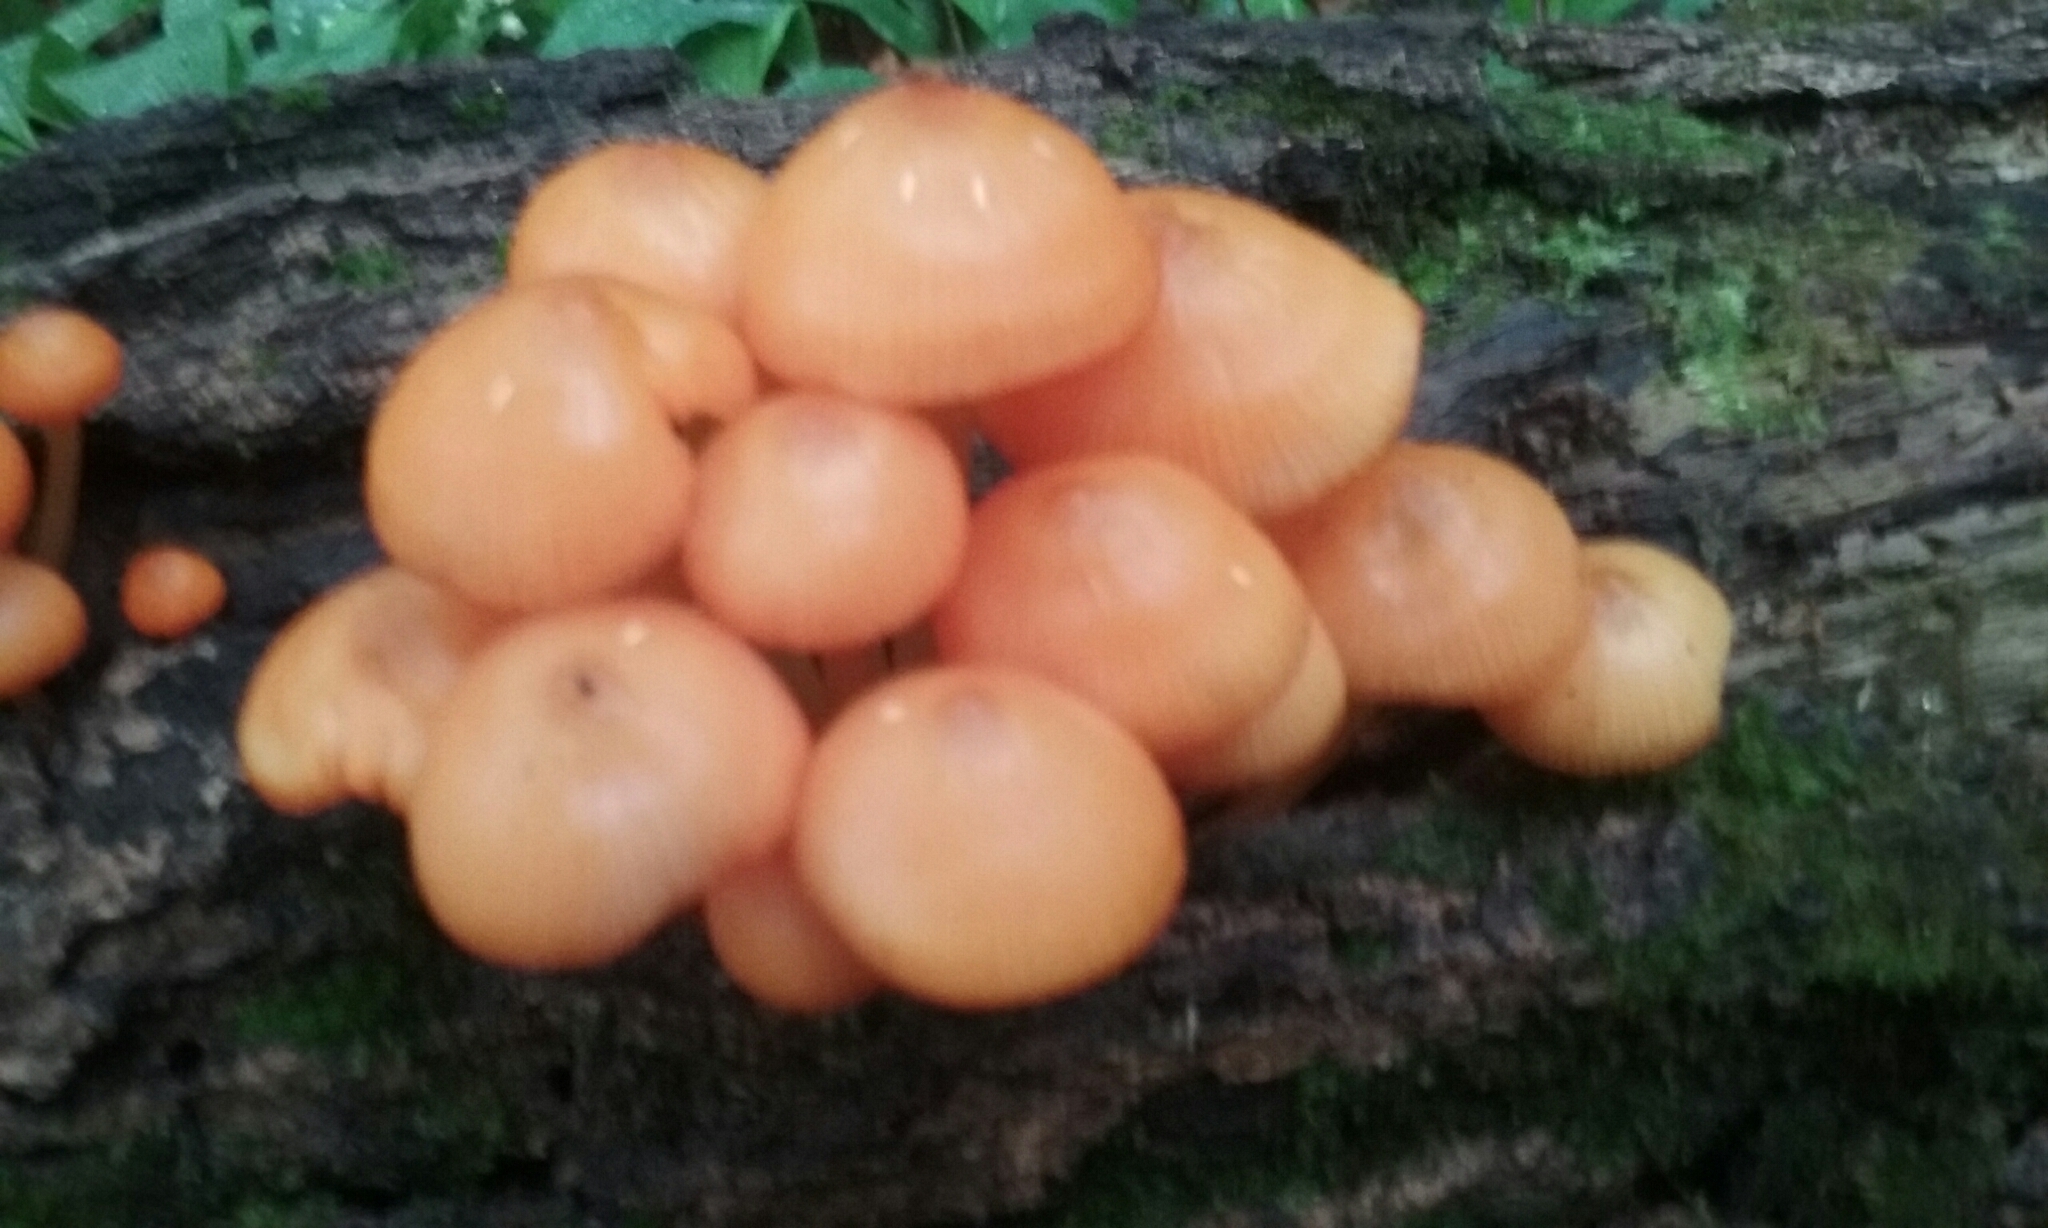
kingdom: Fungi
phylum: Basidiomycota
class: Agaricomycetes
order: Agaricales
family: Mycenaceae
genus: Mycena
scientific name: Mycena leaiana
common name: Orange mycena
